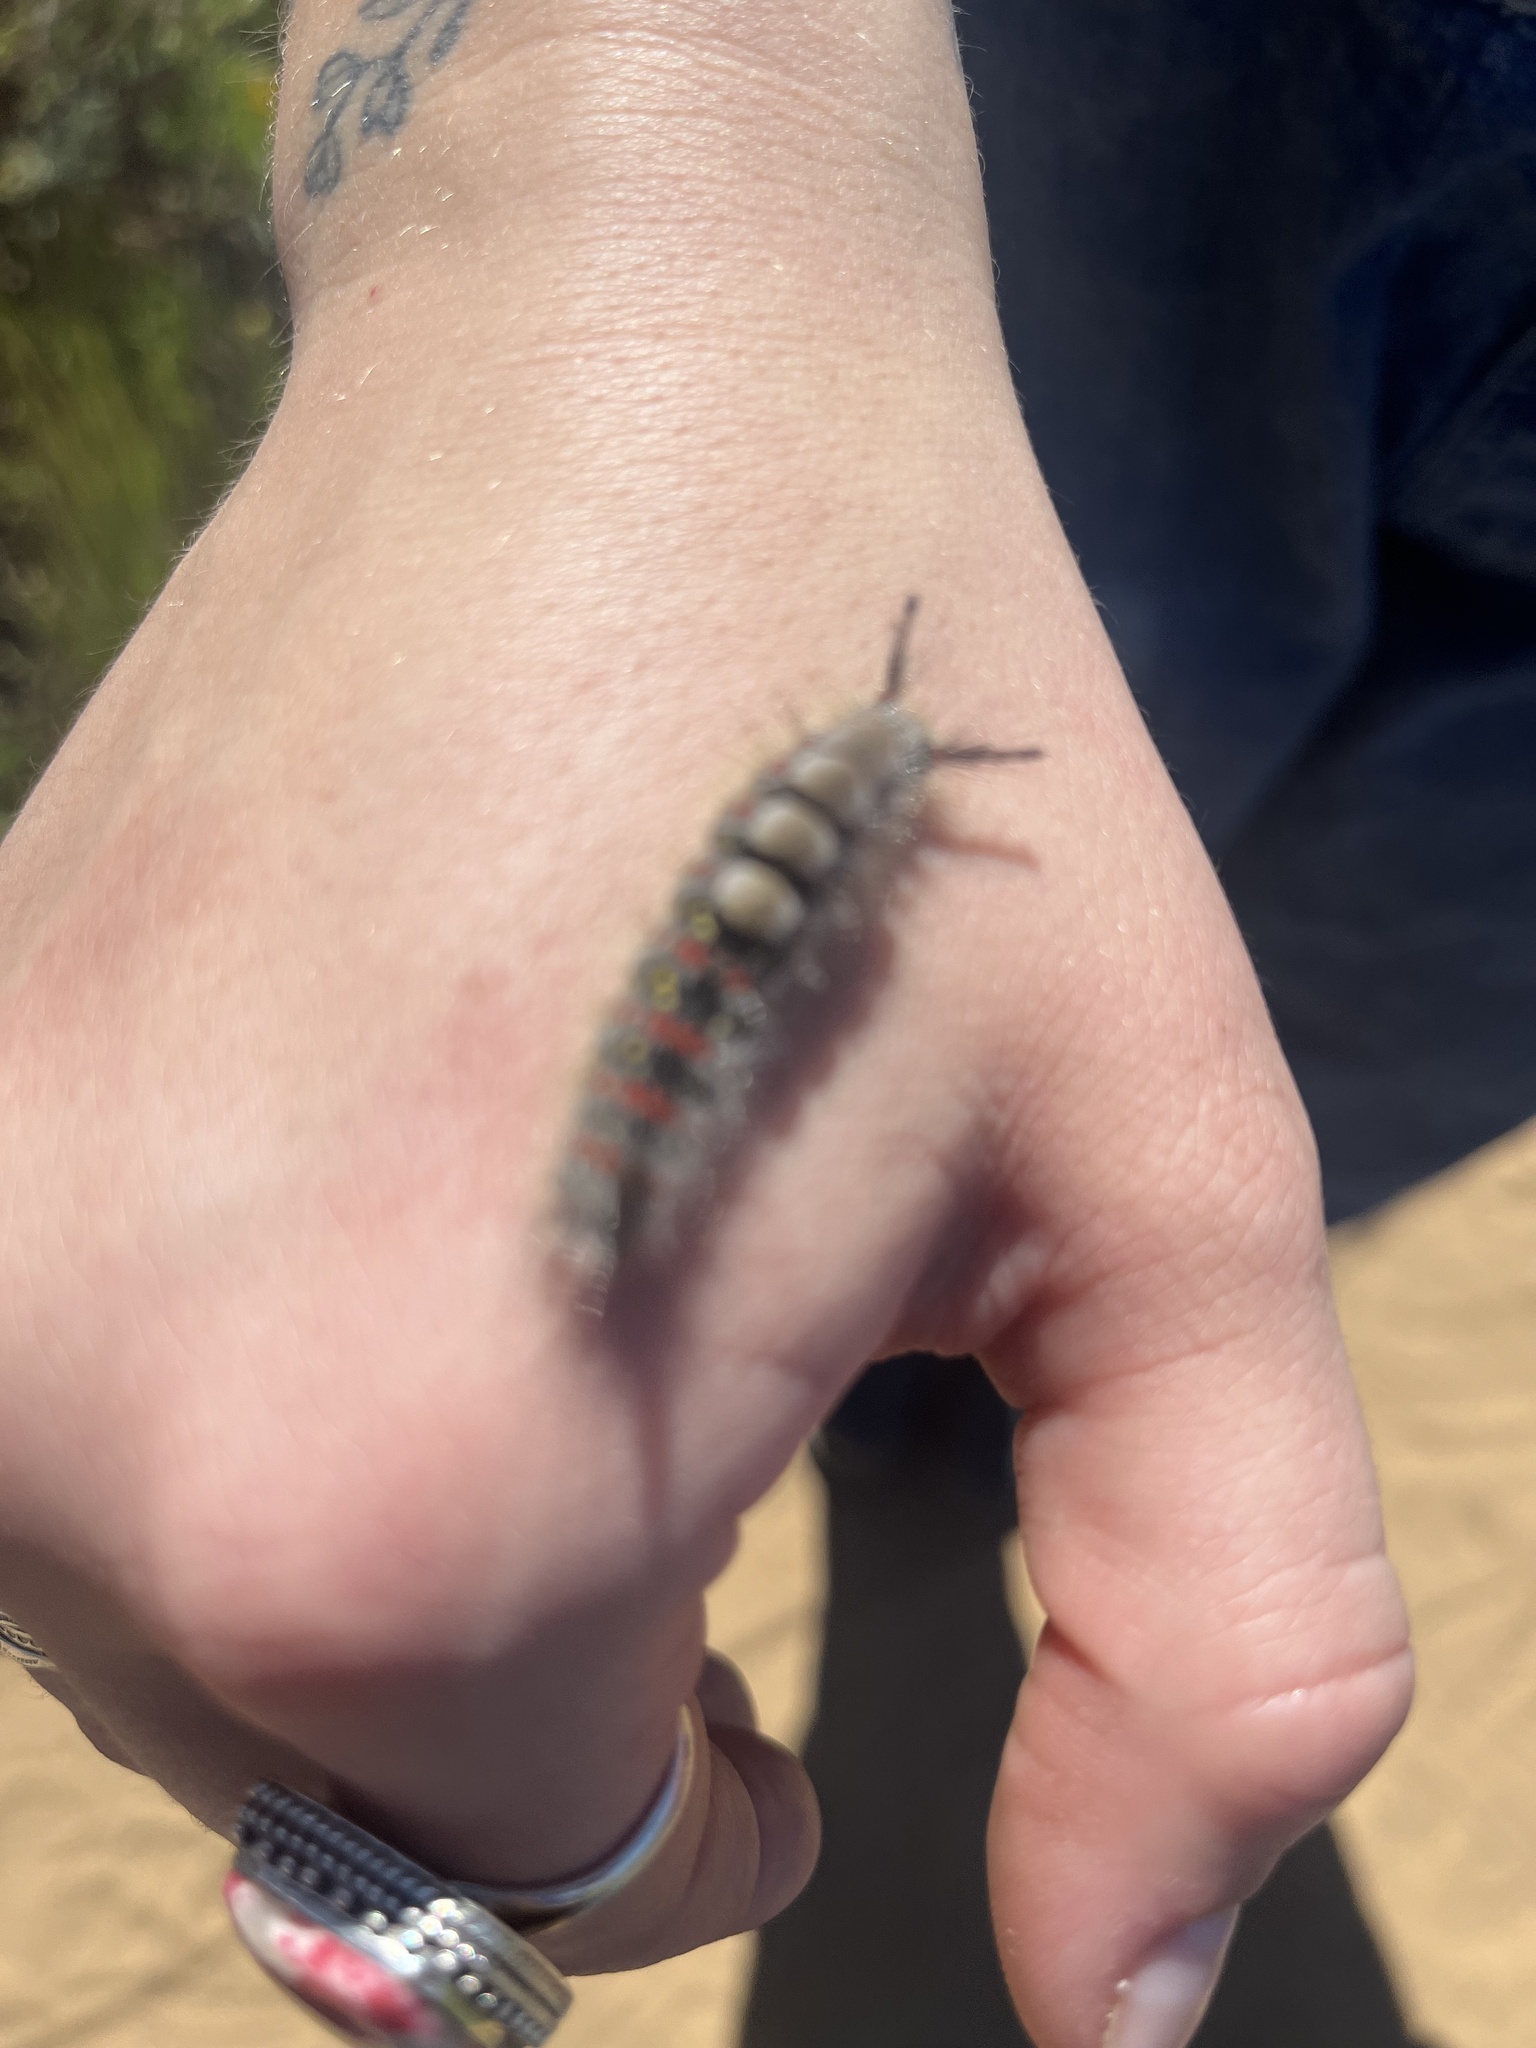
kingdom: Animalia
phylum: Arthropoda
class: Insecta
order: Lepidoptera
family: Erebidae
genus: Orgyia
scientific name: Orgyia vetusta
